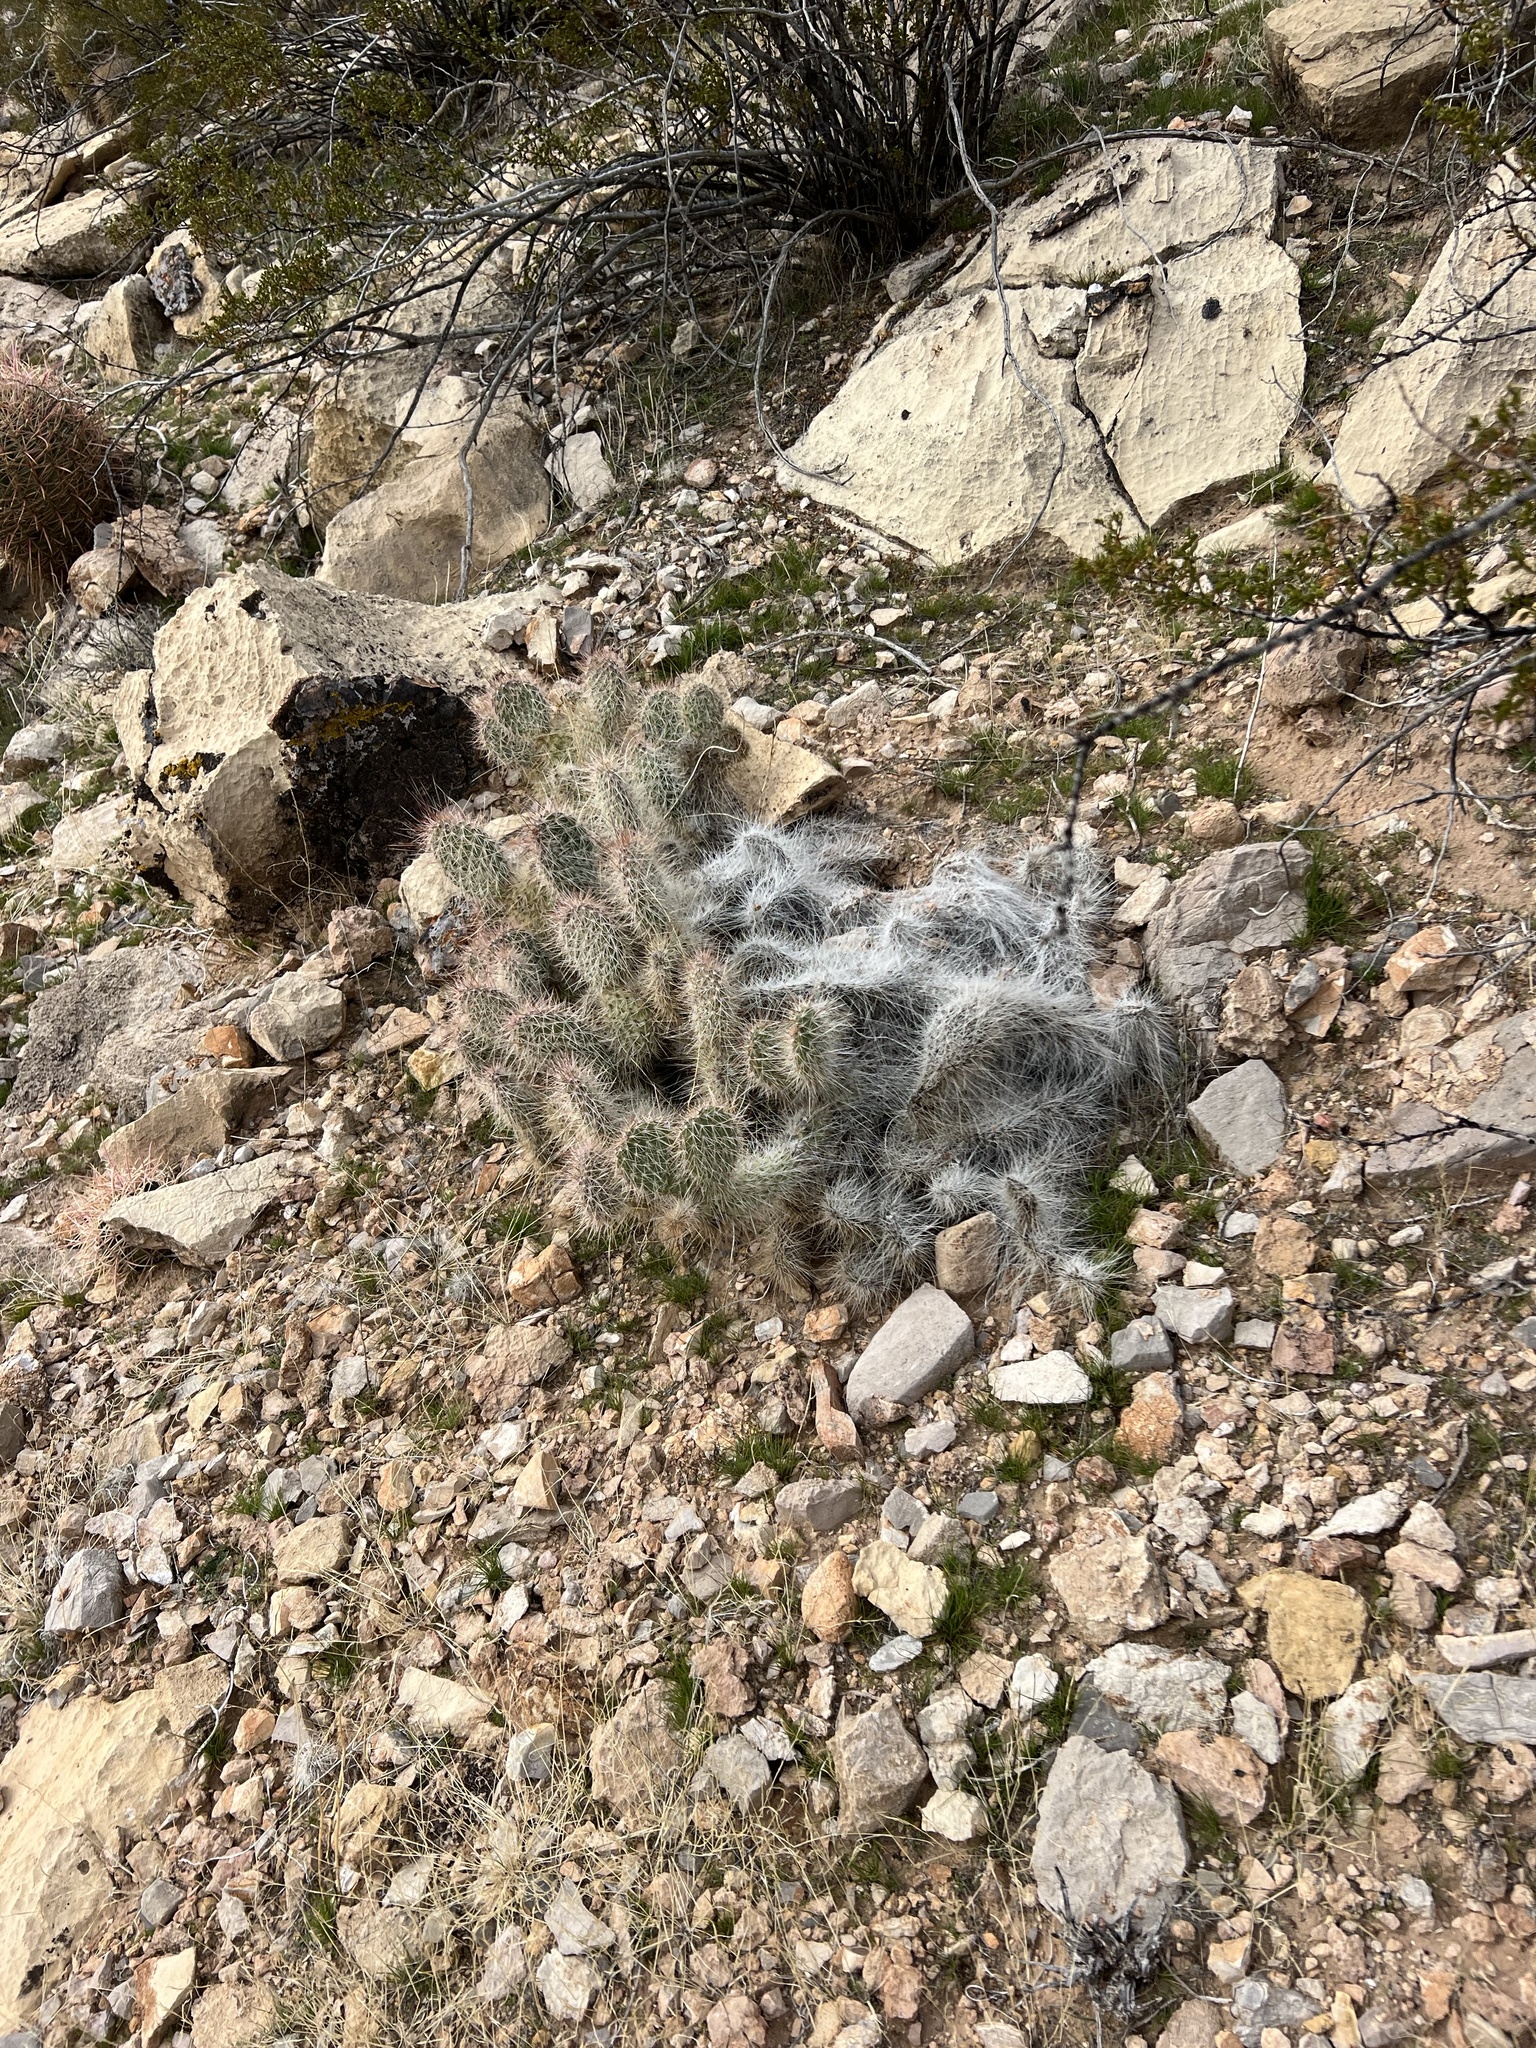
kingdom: Plantae
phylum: Tracheophyta
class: Magnoliopsida
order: Caryophyllales
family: Cactaceae
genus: Opuntia
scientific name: Opuntia polyacantha
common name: Plains prickly-pear
